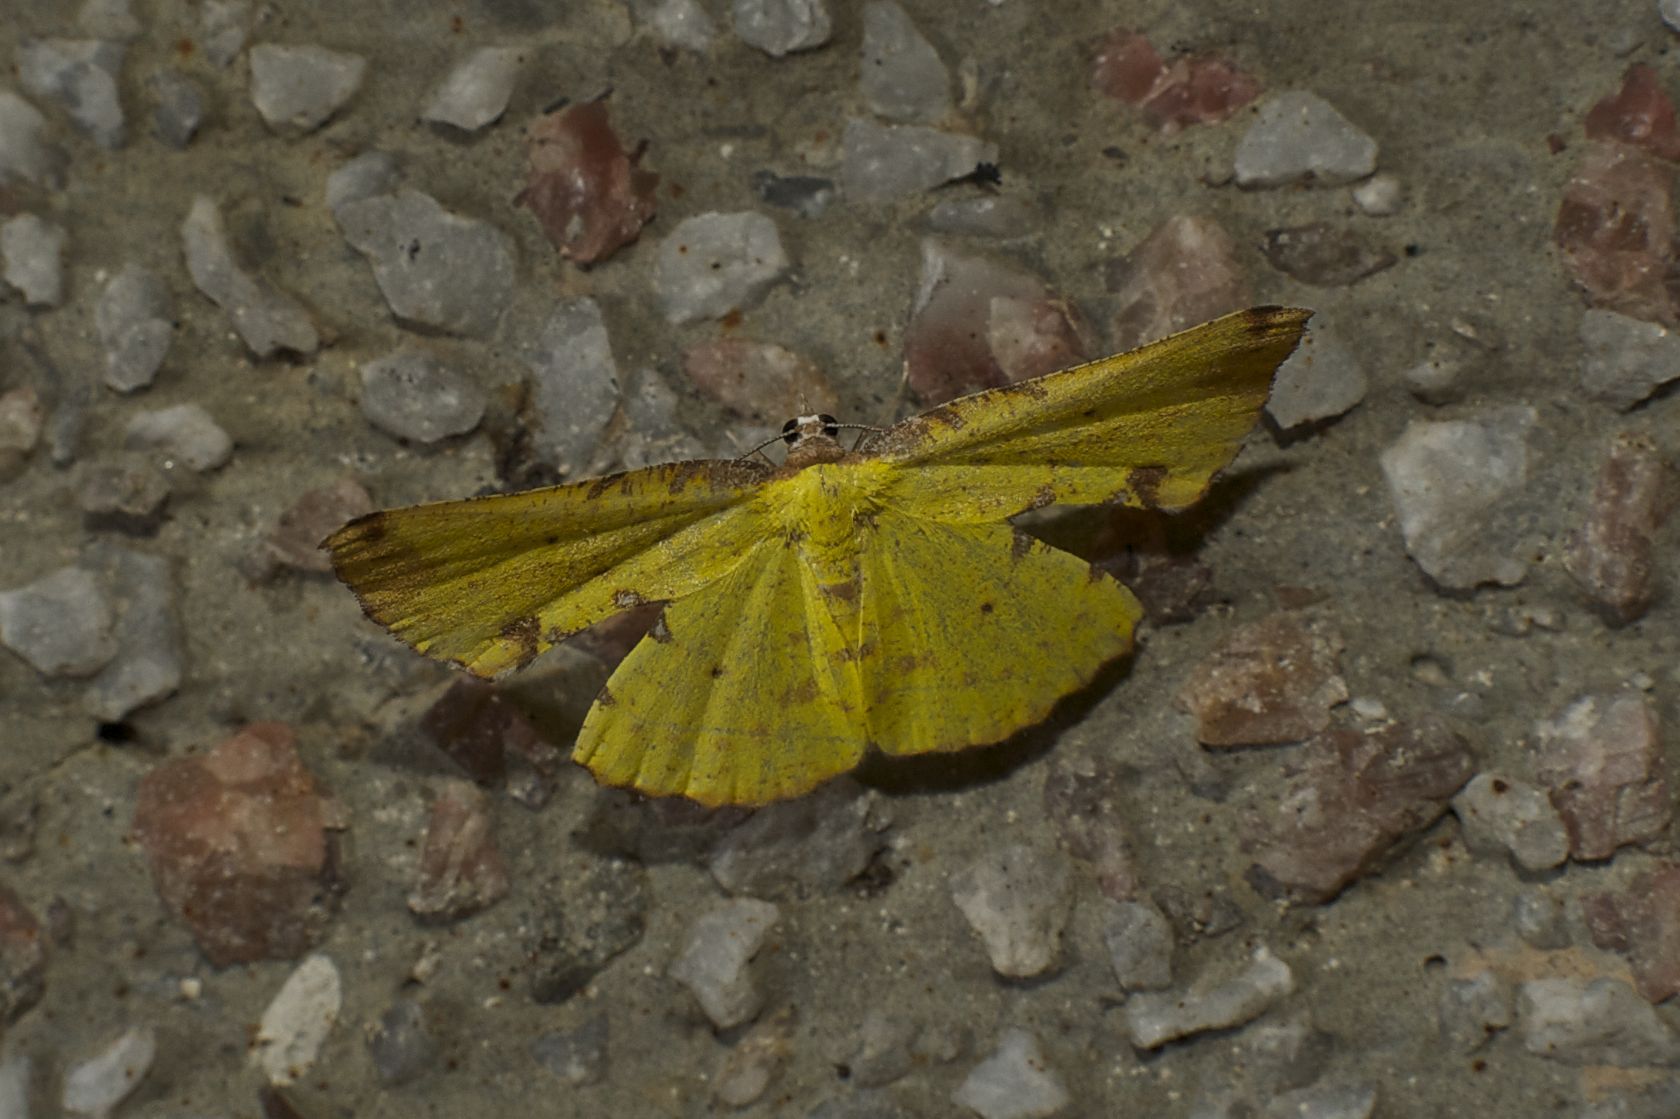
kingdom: Animalia
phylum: Arthropoda
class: Insecta
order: Lepidoptera
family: Geometridae
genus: Corymica
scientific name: Corymica arnearia
